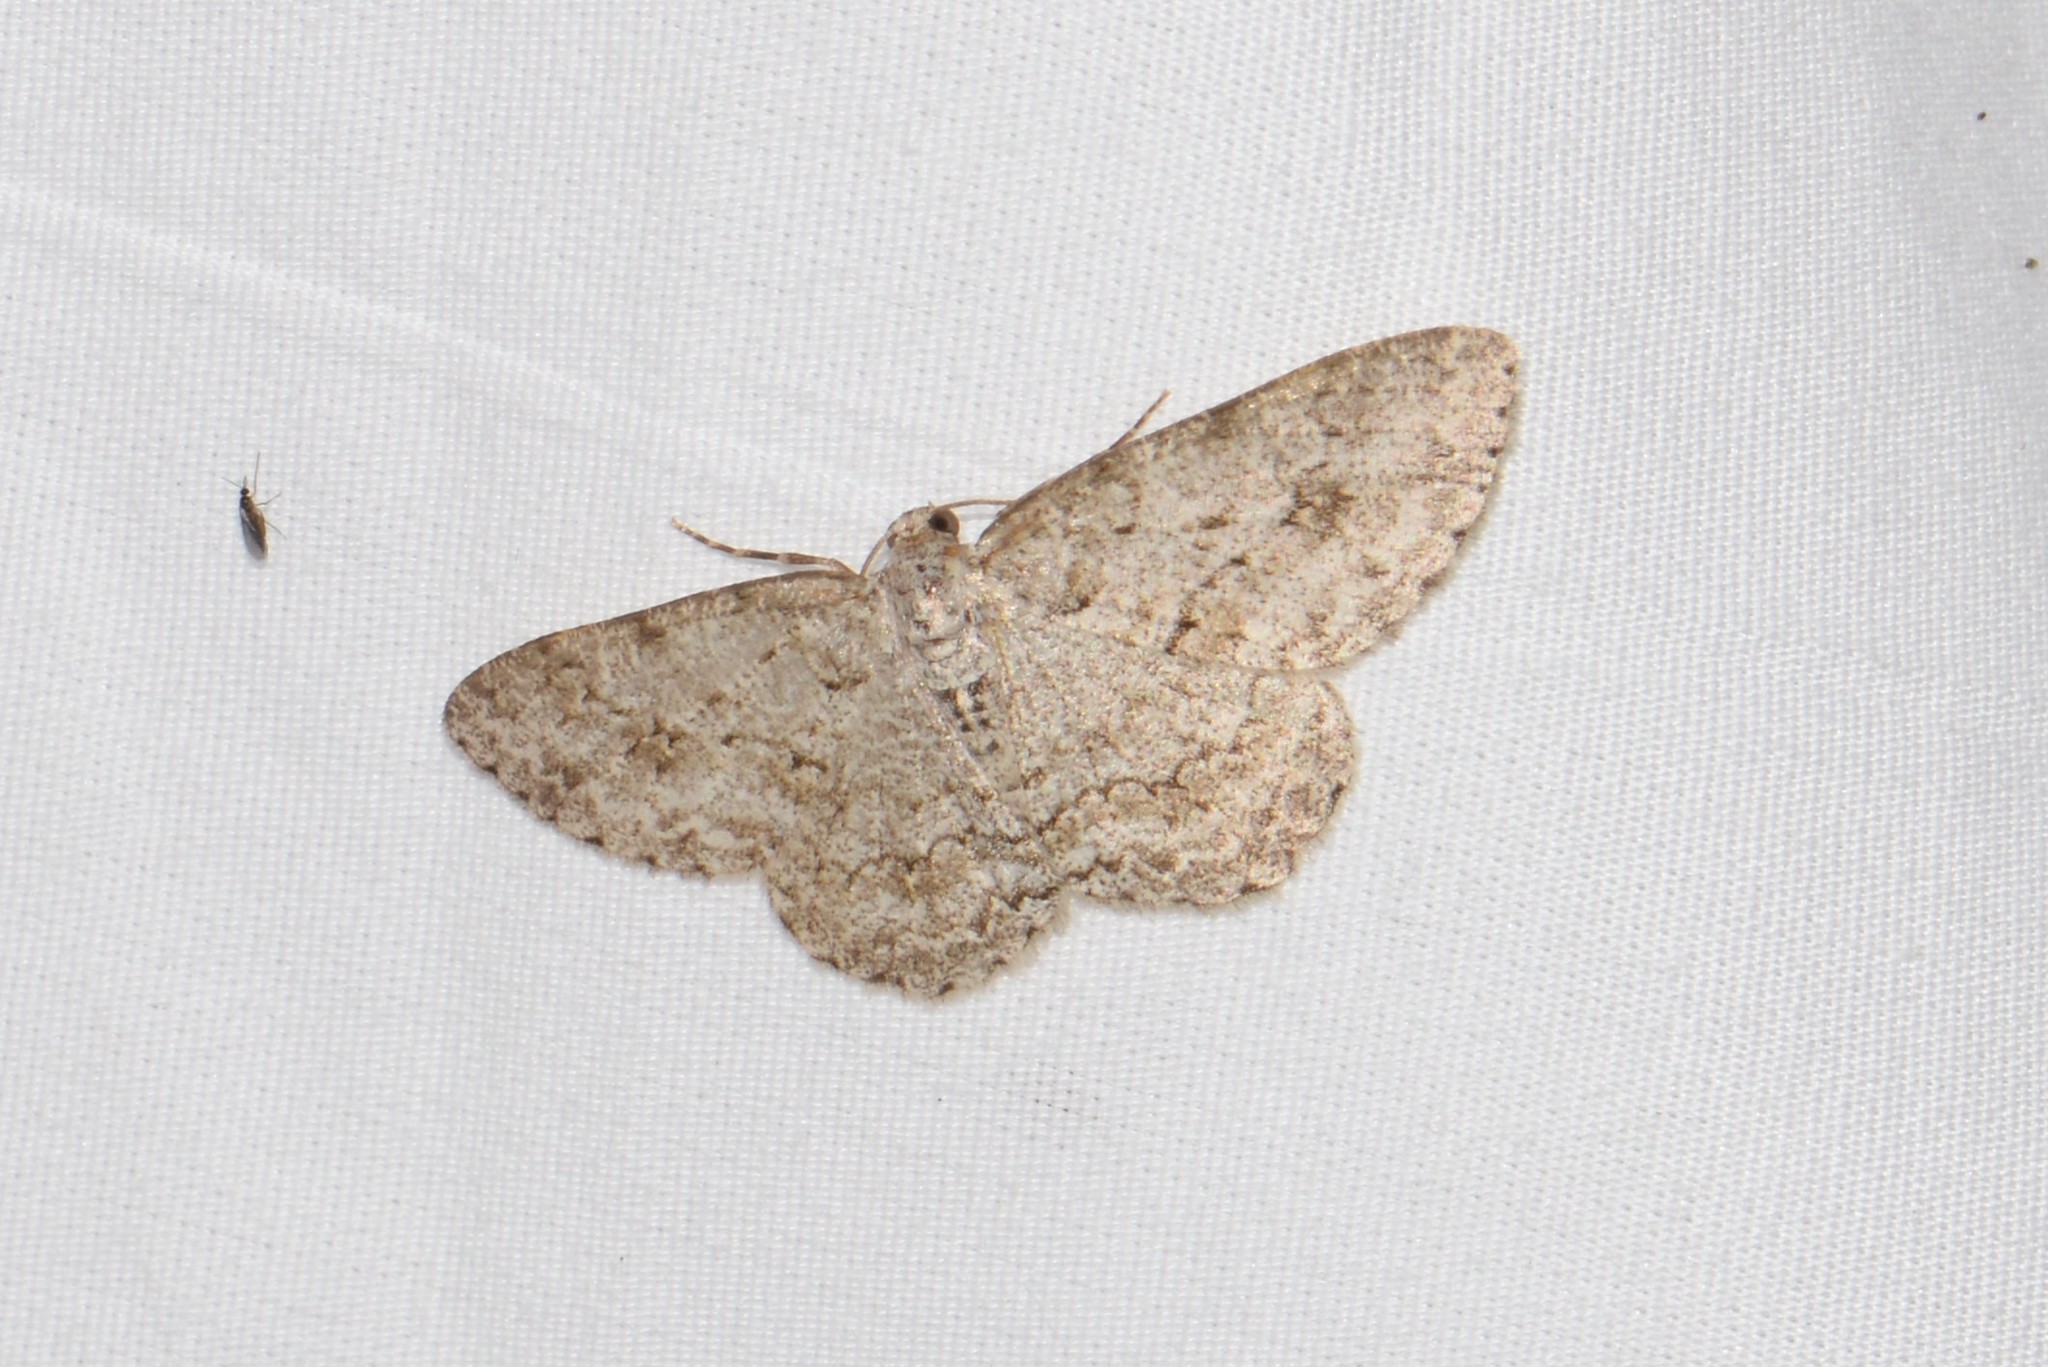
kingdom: Animalia
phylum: Arthropoda
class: Insecta
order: Lepidoptera
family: Geometridae
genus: Ectropis
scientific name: Ectropis crepuscularia
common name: Engrailed
